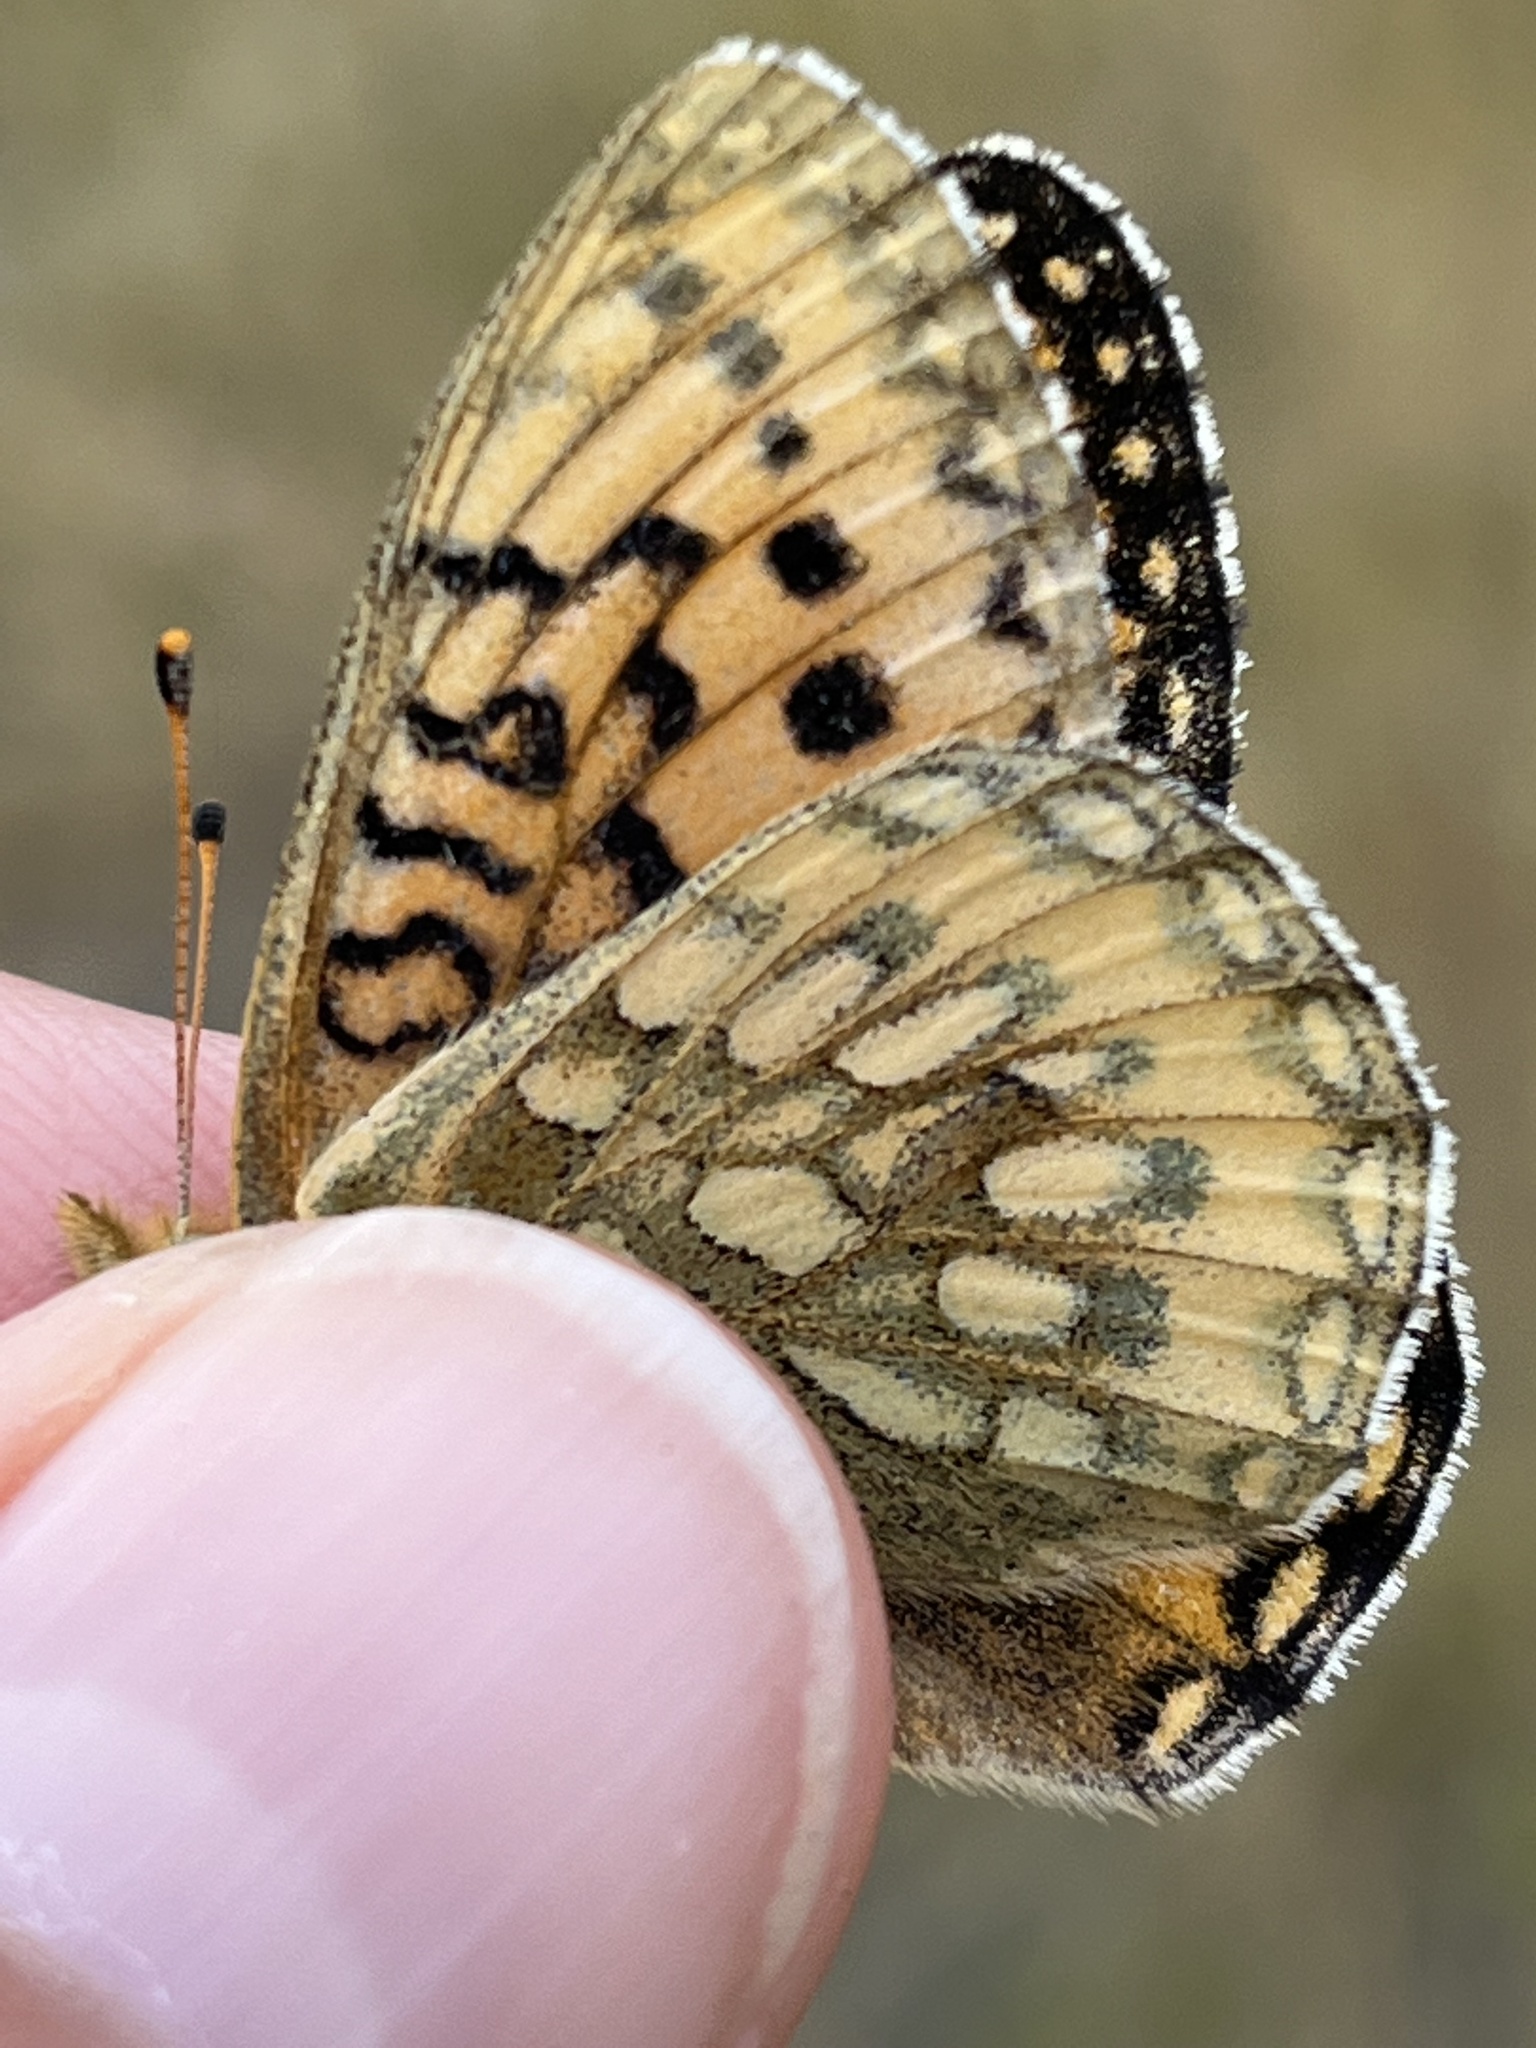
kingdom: Animalia
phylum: Arthropoda
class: Insecta
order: Lepidoptera
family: Nymphalidae
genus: Speyeria
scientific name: Speyeria mormonia
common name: Mormon fritillary
